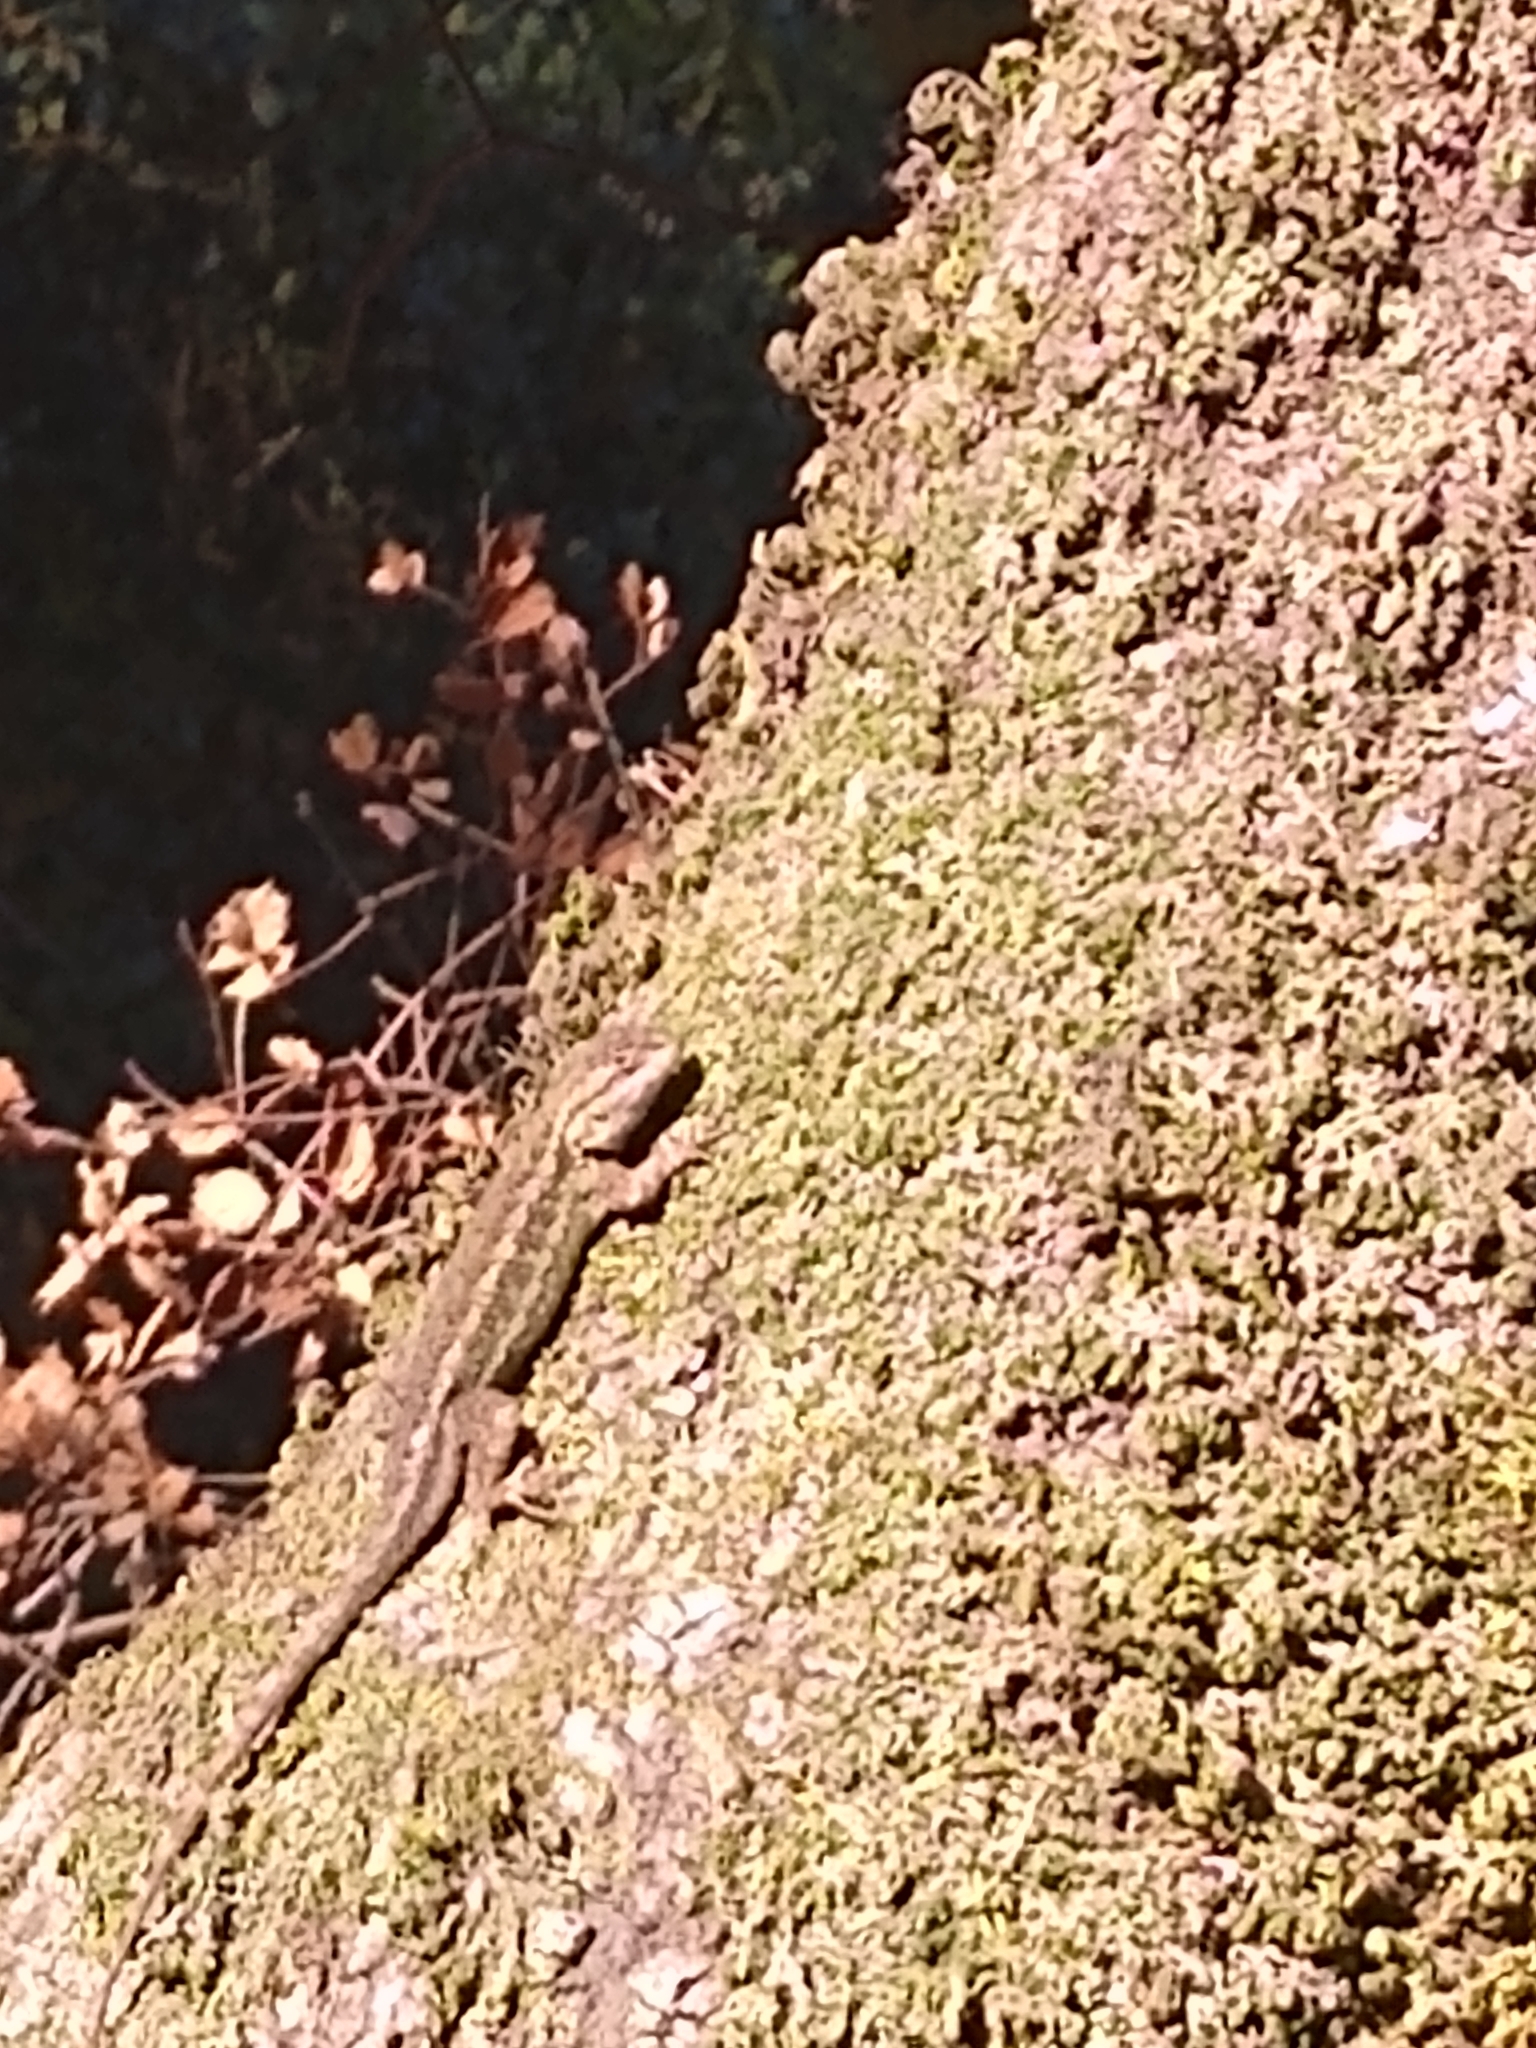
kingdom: Animalia
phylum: Chordata
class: Squamata
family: Phrynosomatidae
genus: Sceloporus
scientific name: Sceloporus occidentalis
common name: Western fence lizard
